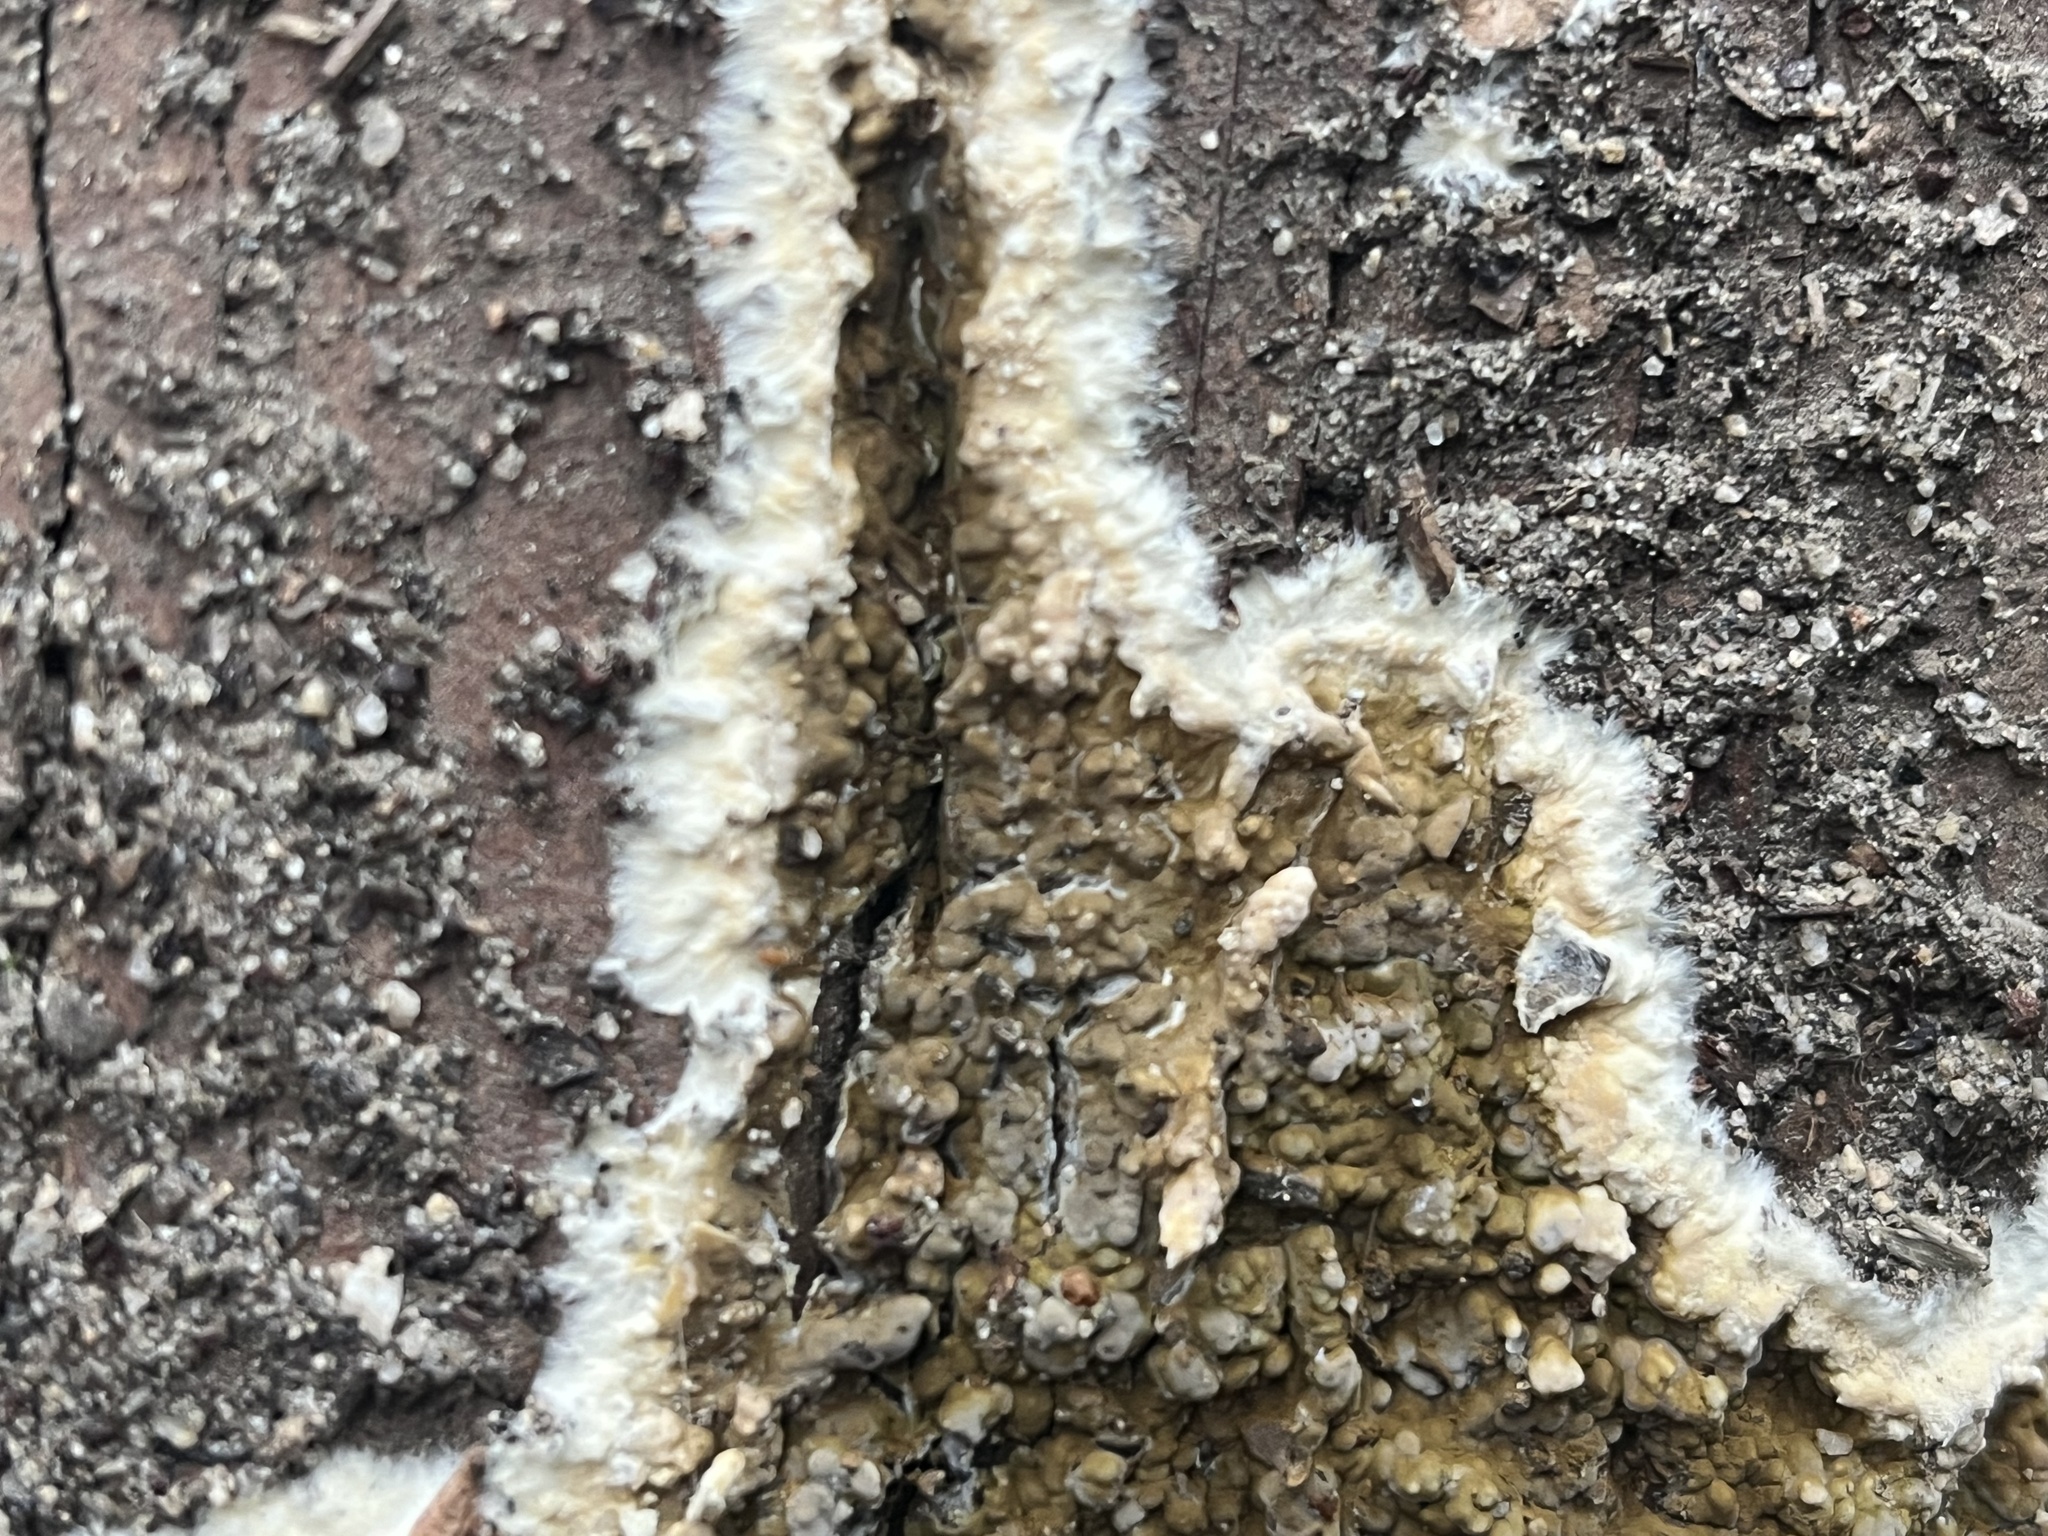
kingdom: Fungi
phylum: Basidiomycota
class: Agaricomycetes
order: Boletales
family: Coniophoraceae
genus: Coniophora
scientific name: Coniophora puteana
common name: Cellar fungus
